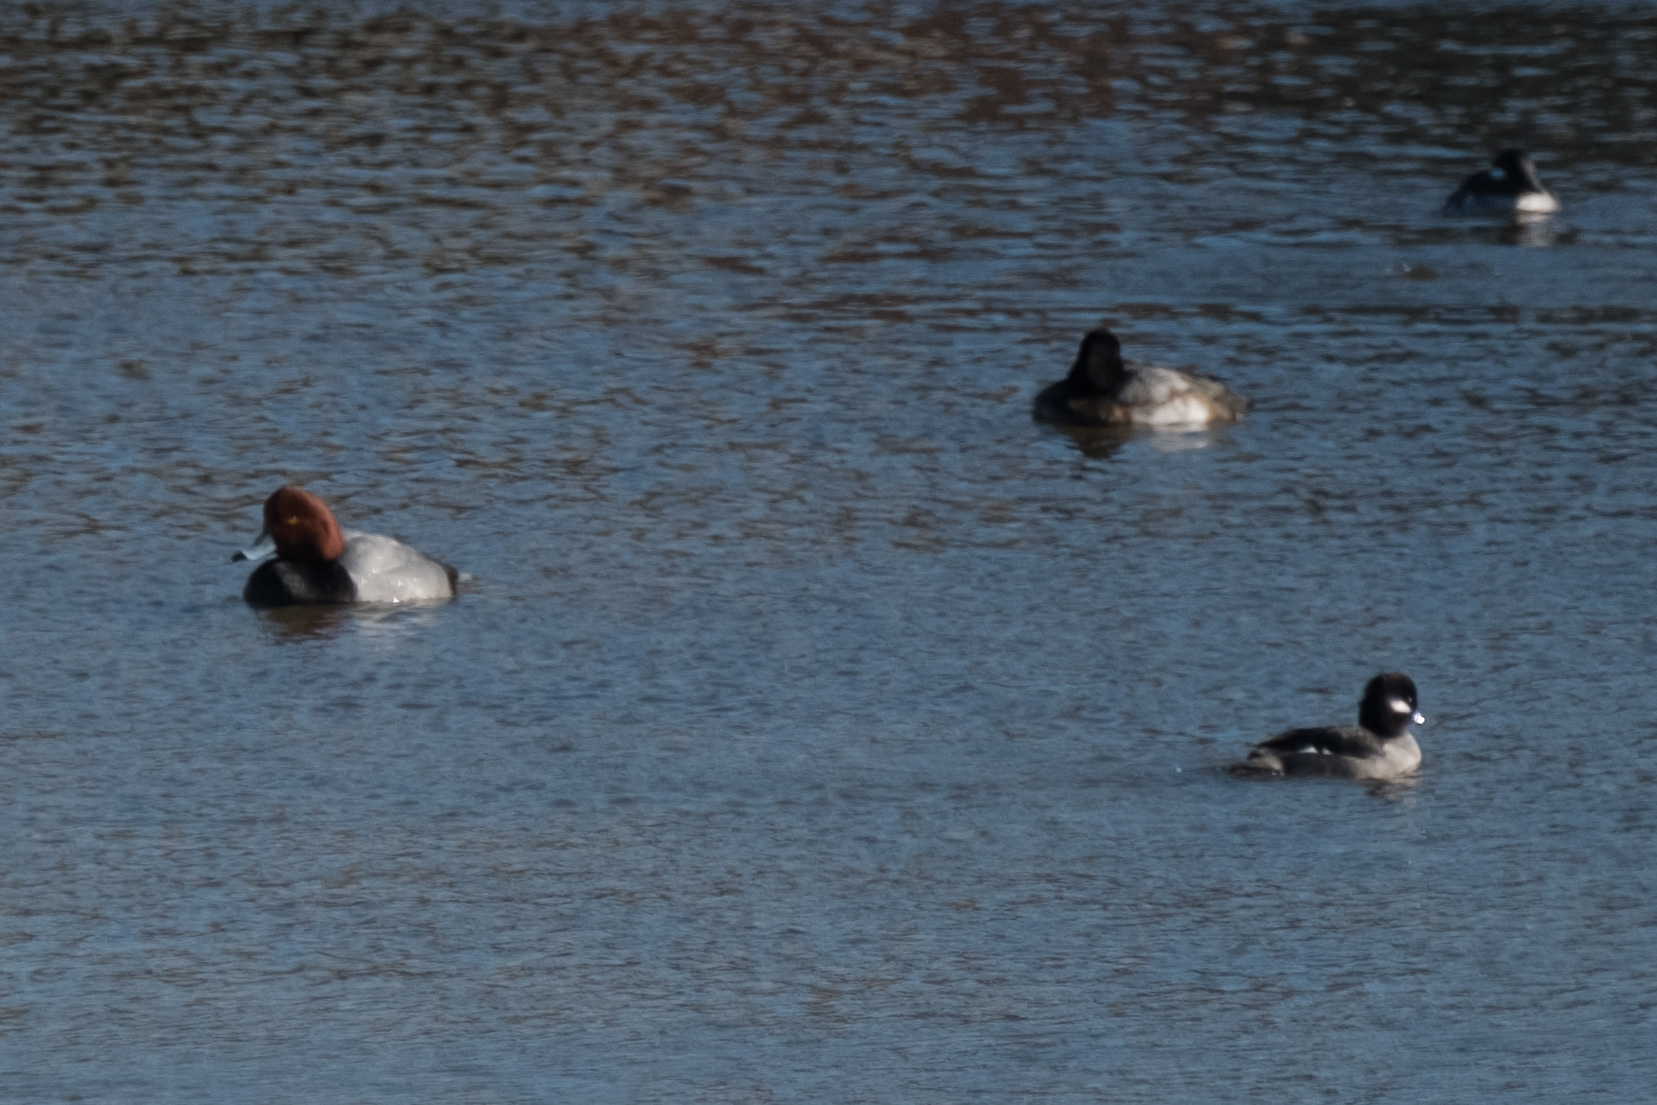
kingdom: Animalia
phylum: Chordata
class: Aves
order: Anseriformes
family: Anatidae
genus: Aythya
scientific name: Aythya americana
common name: Redhead
